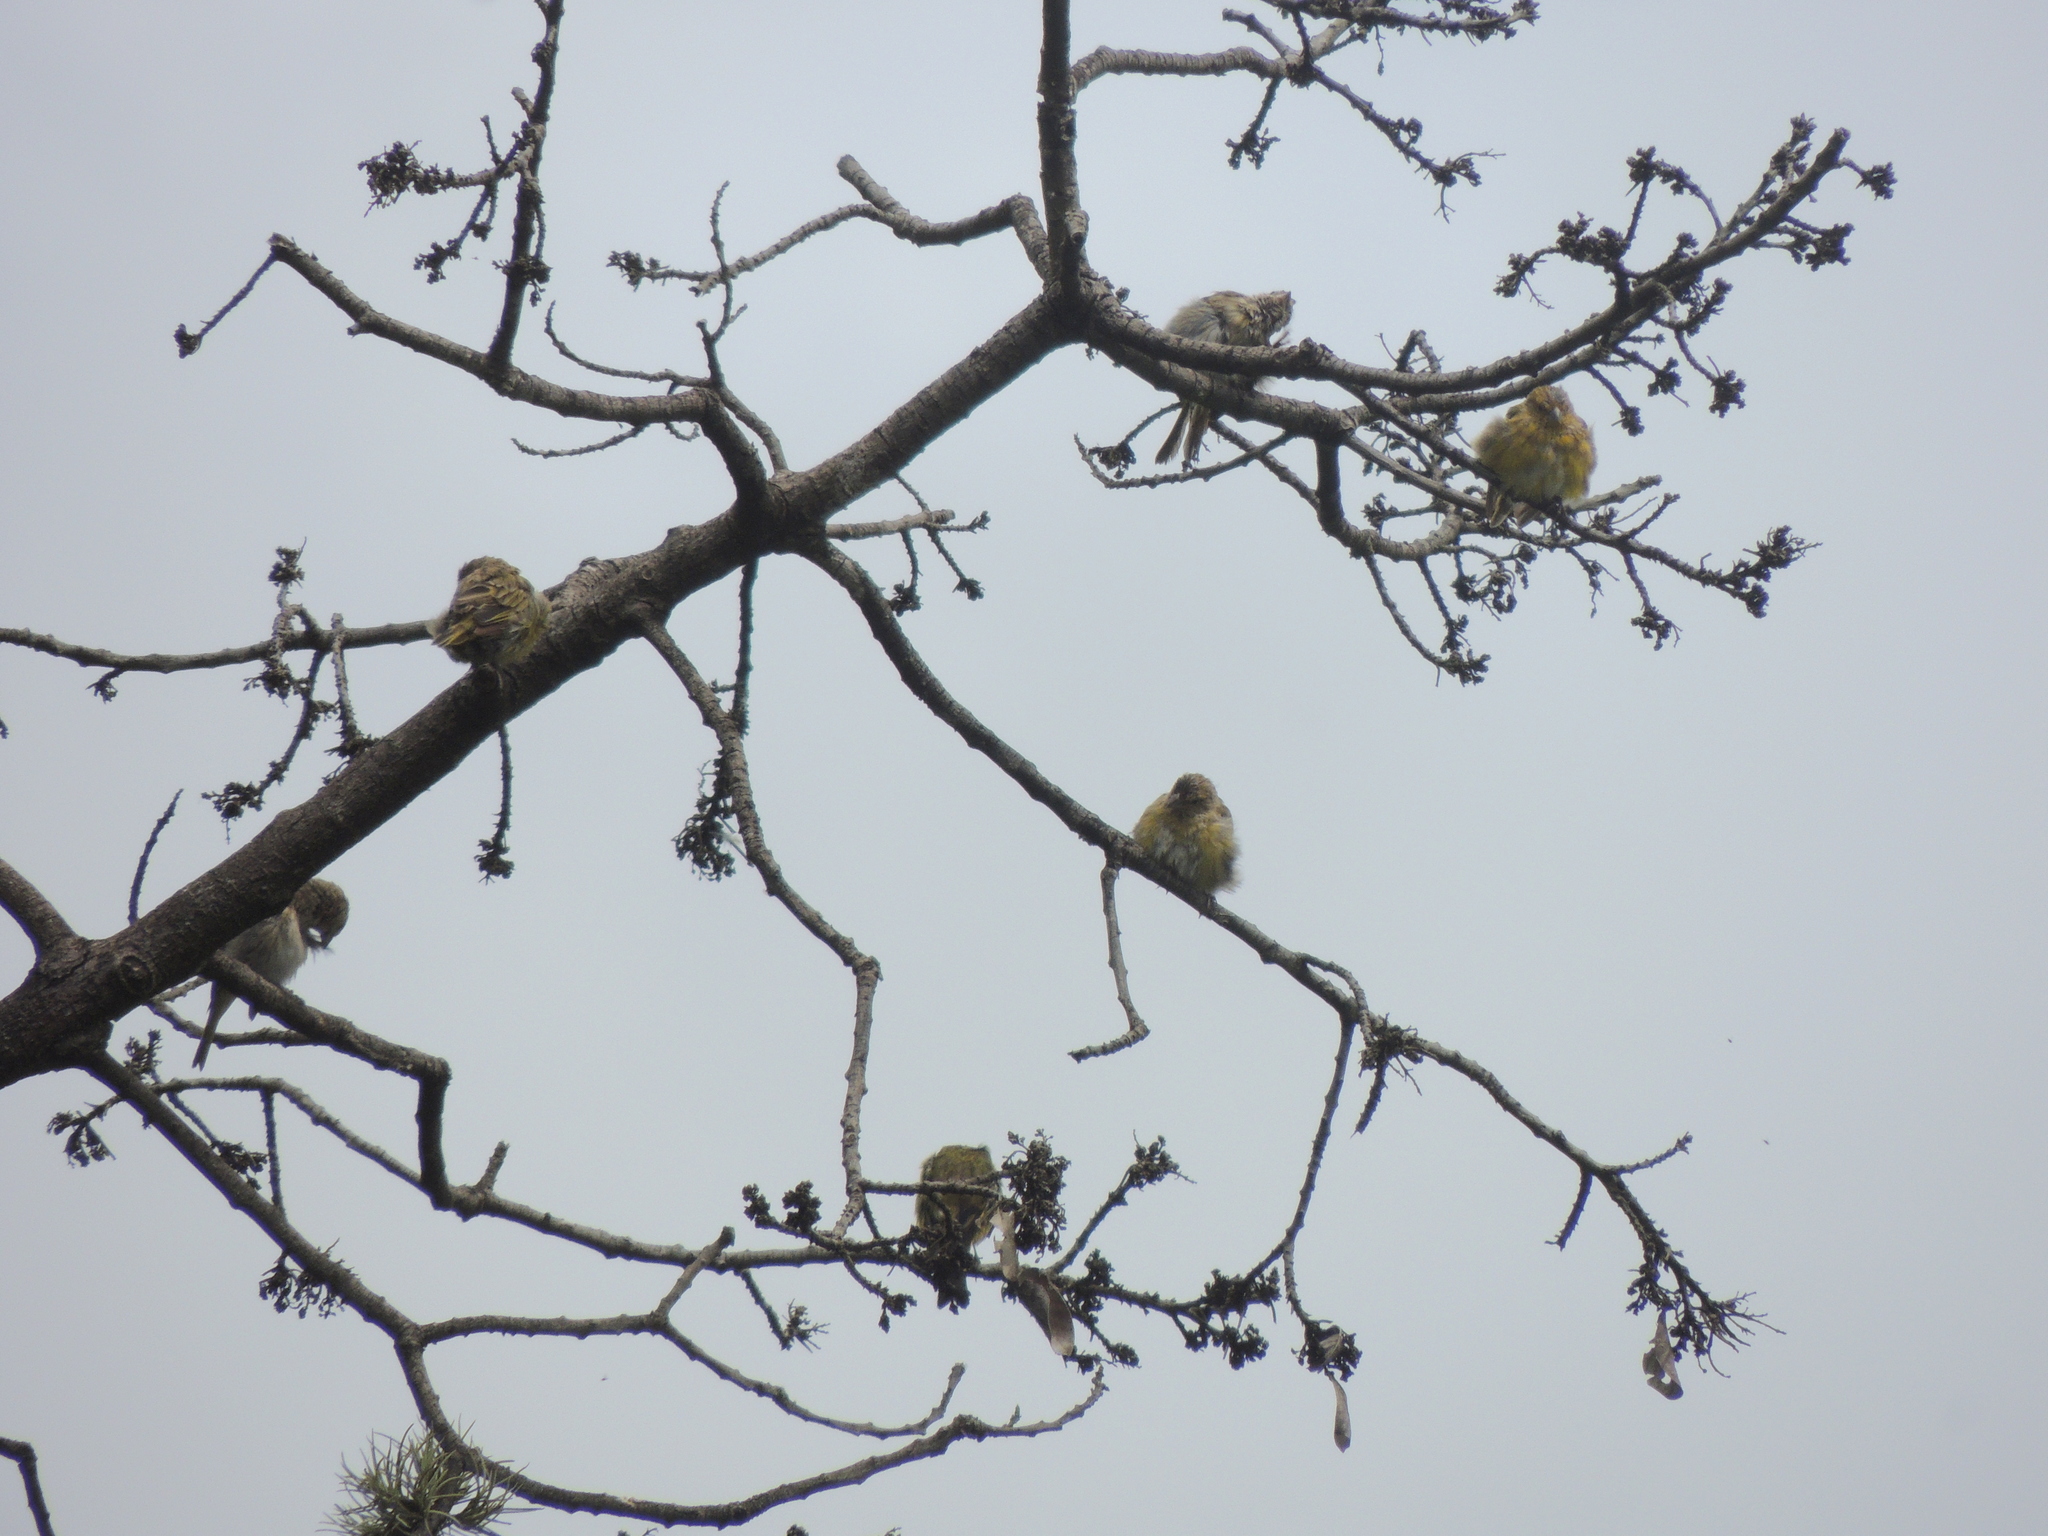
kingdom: Animalia
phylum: Chordata
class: Aves
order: Passeriformes
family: Thraupidae
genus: Sicalis
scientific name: Sicalis flaveola
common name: Saffron finch
